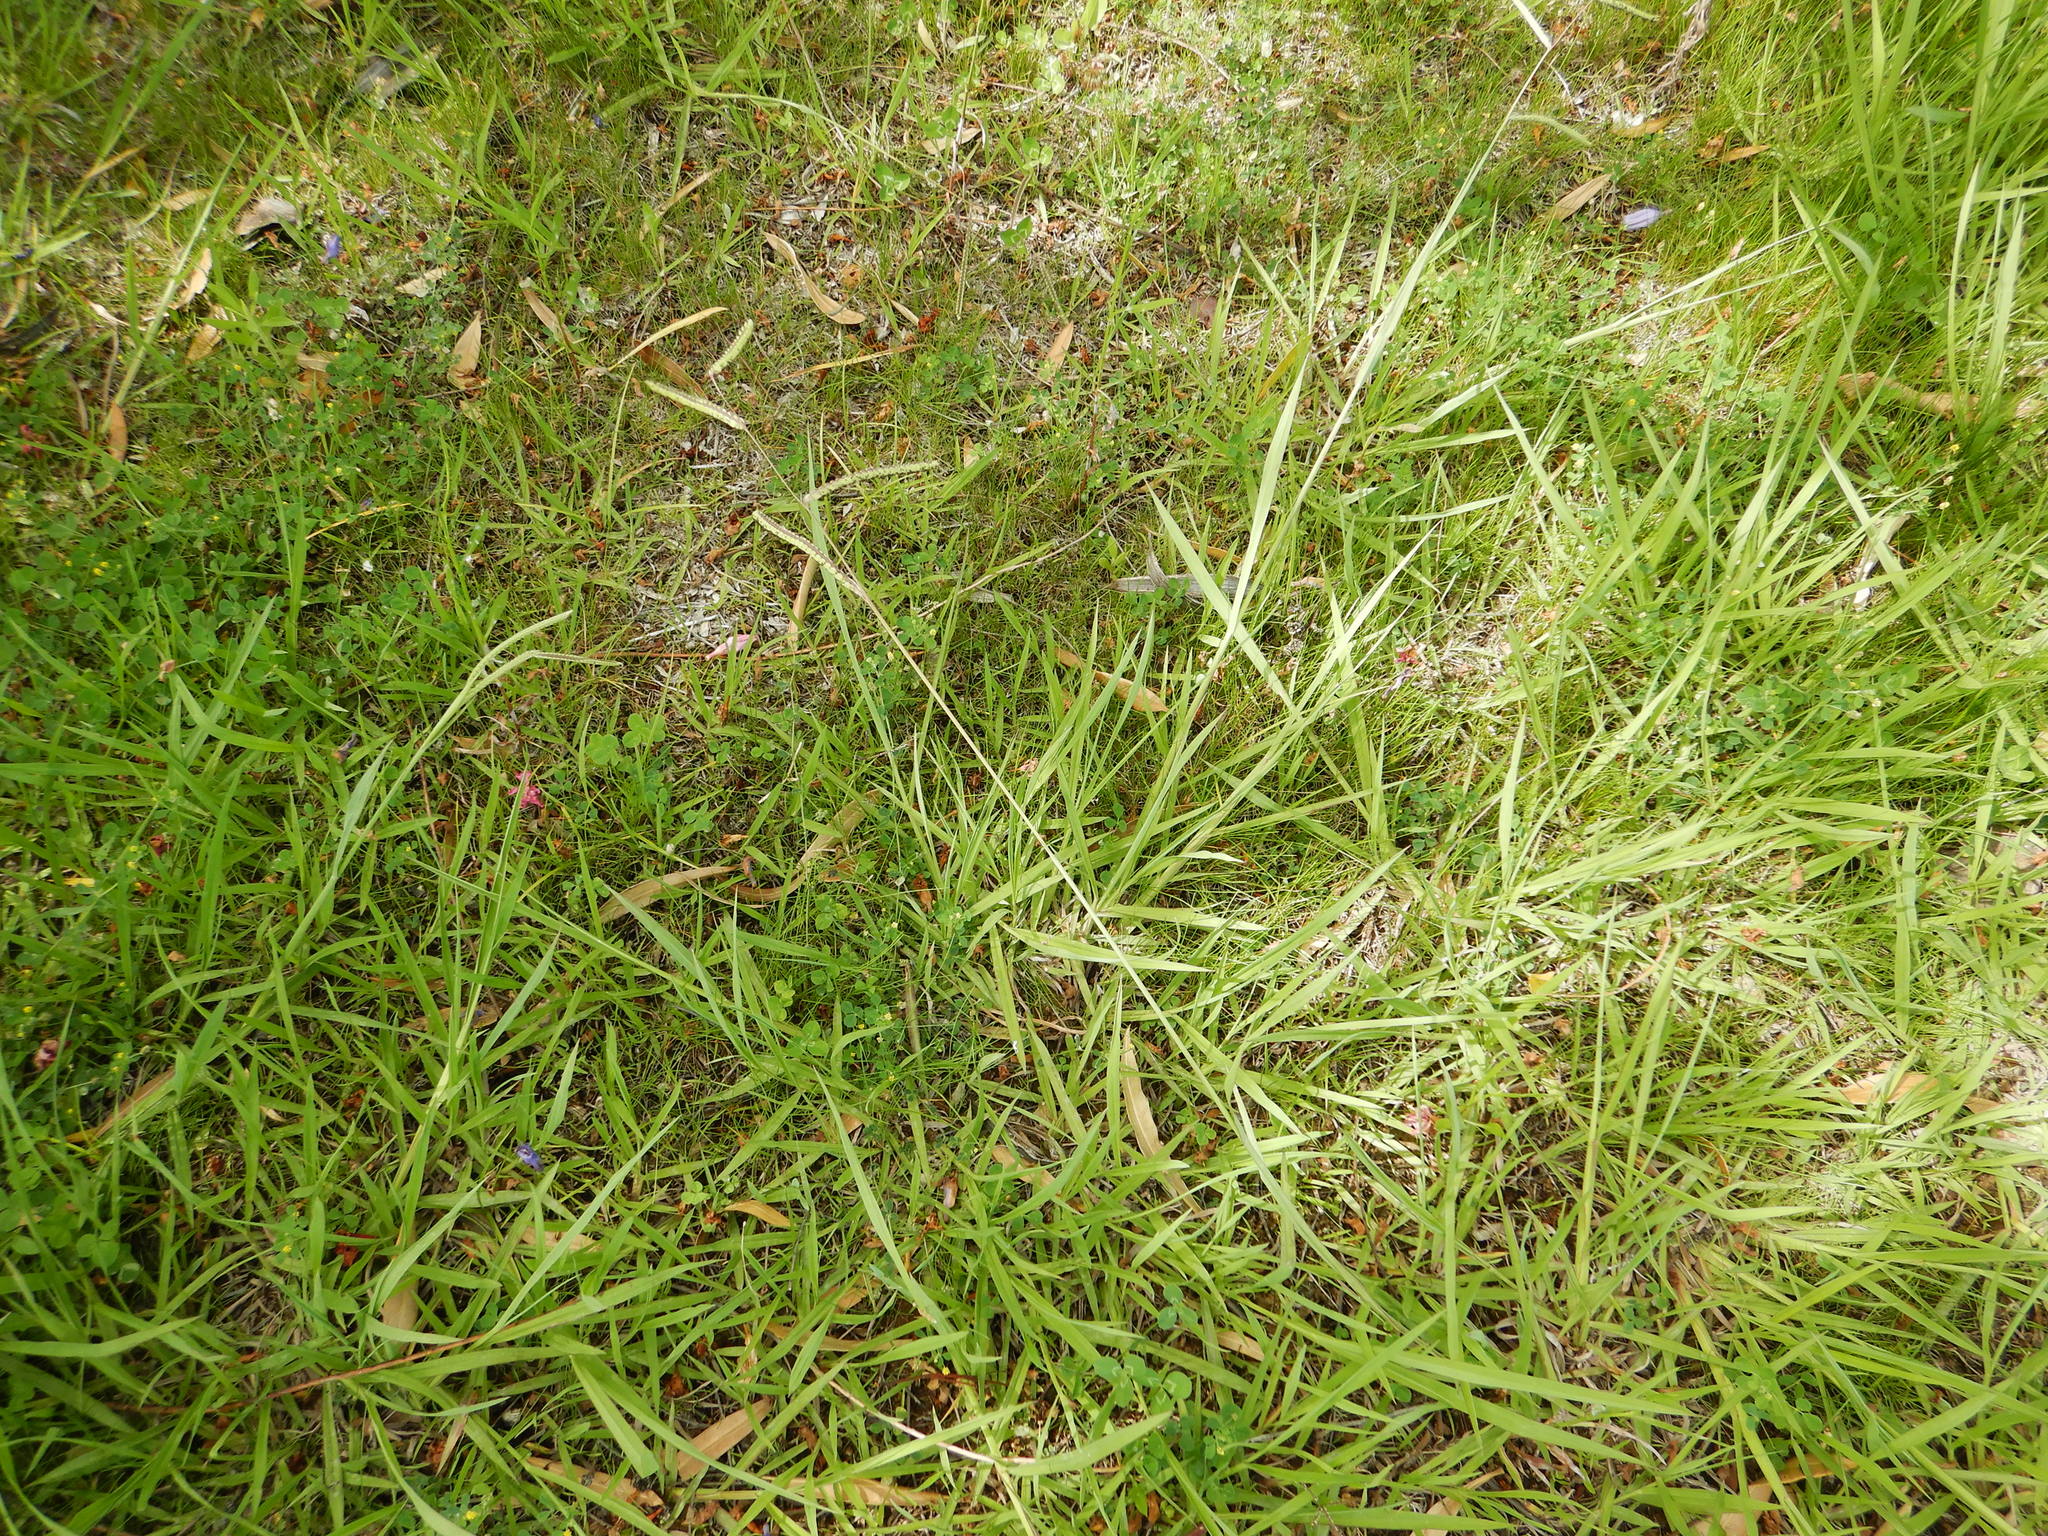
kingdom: Plantae
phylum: Tracheophyta
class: Liliopsida
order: Poales
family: Poaceae
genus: Paspalum
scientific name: Paspalum dilatatum
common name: Dallisgrass
